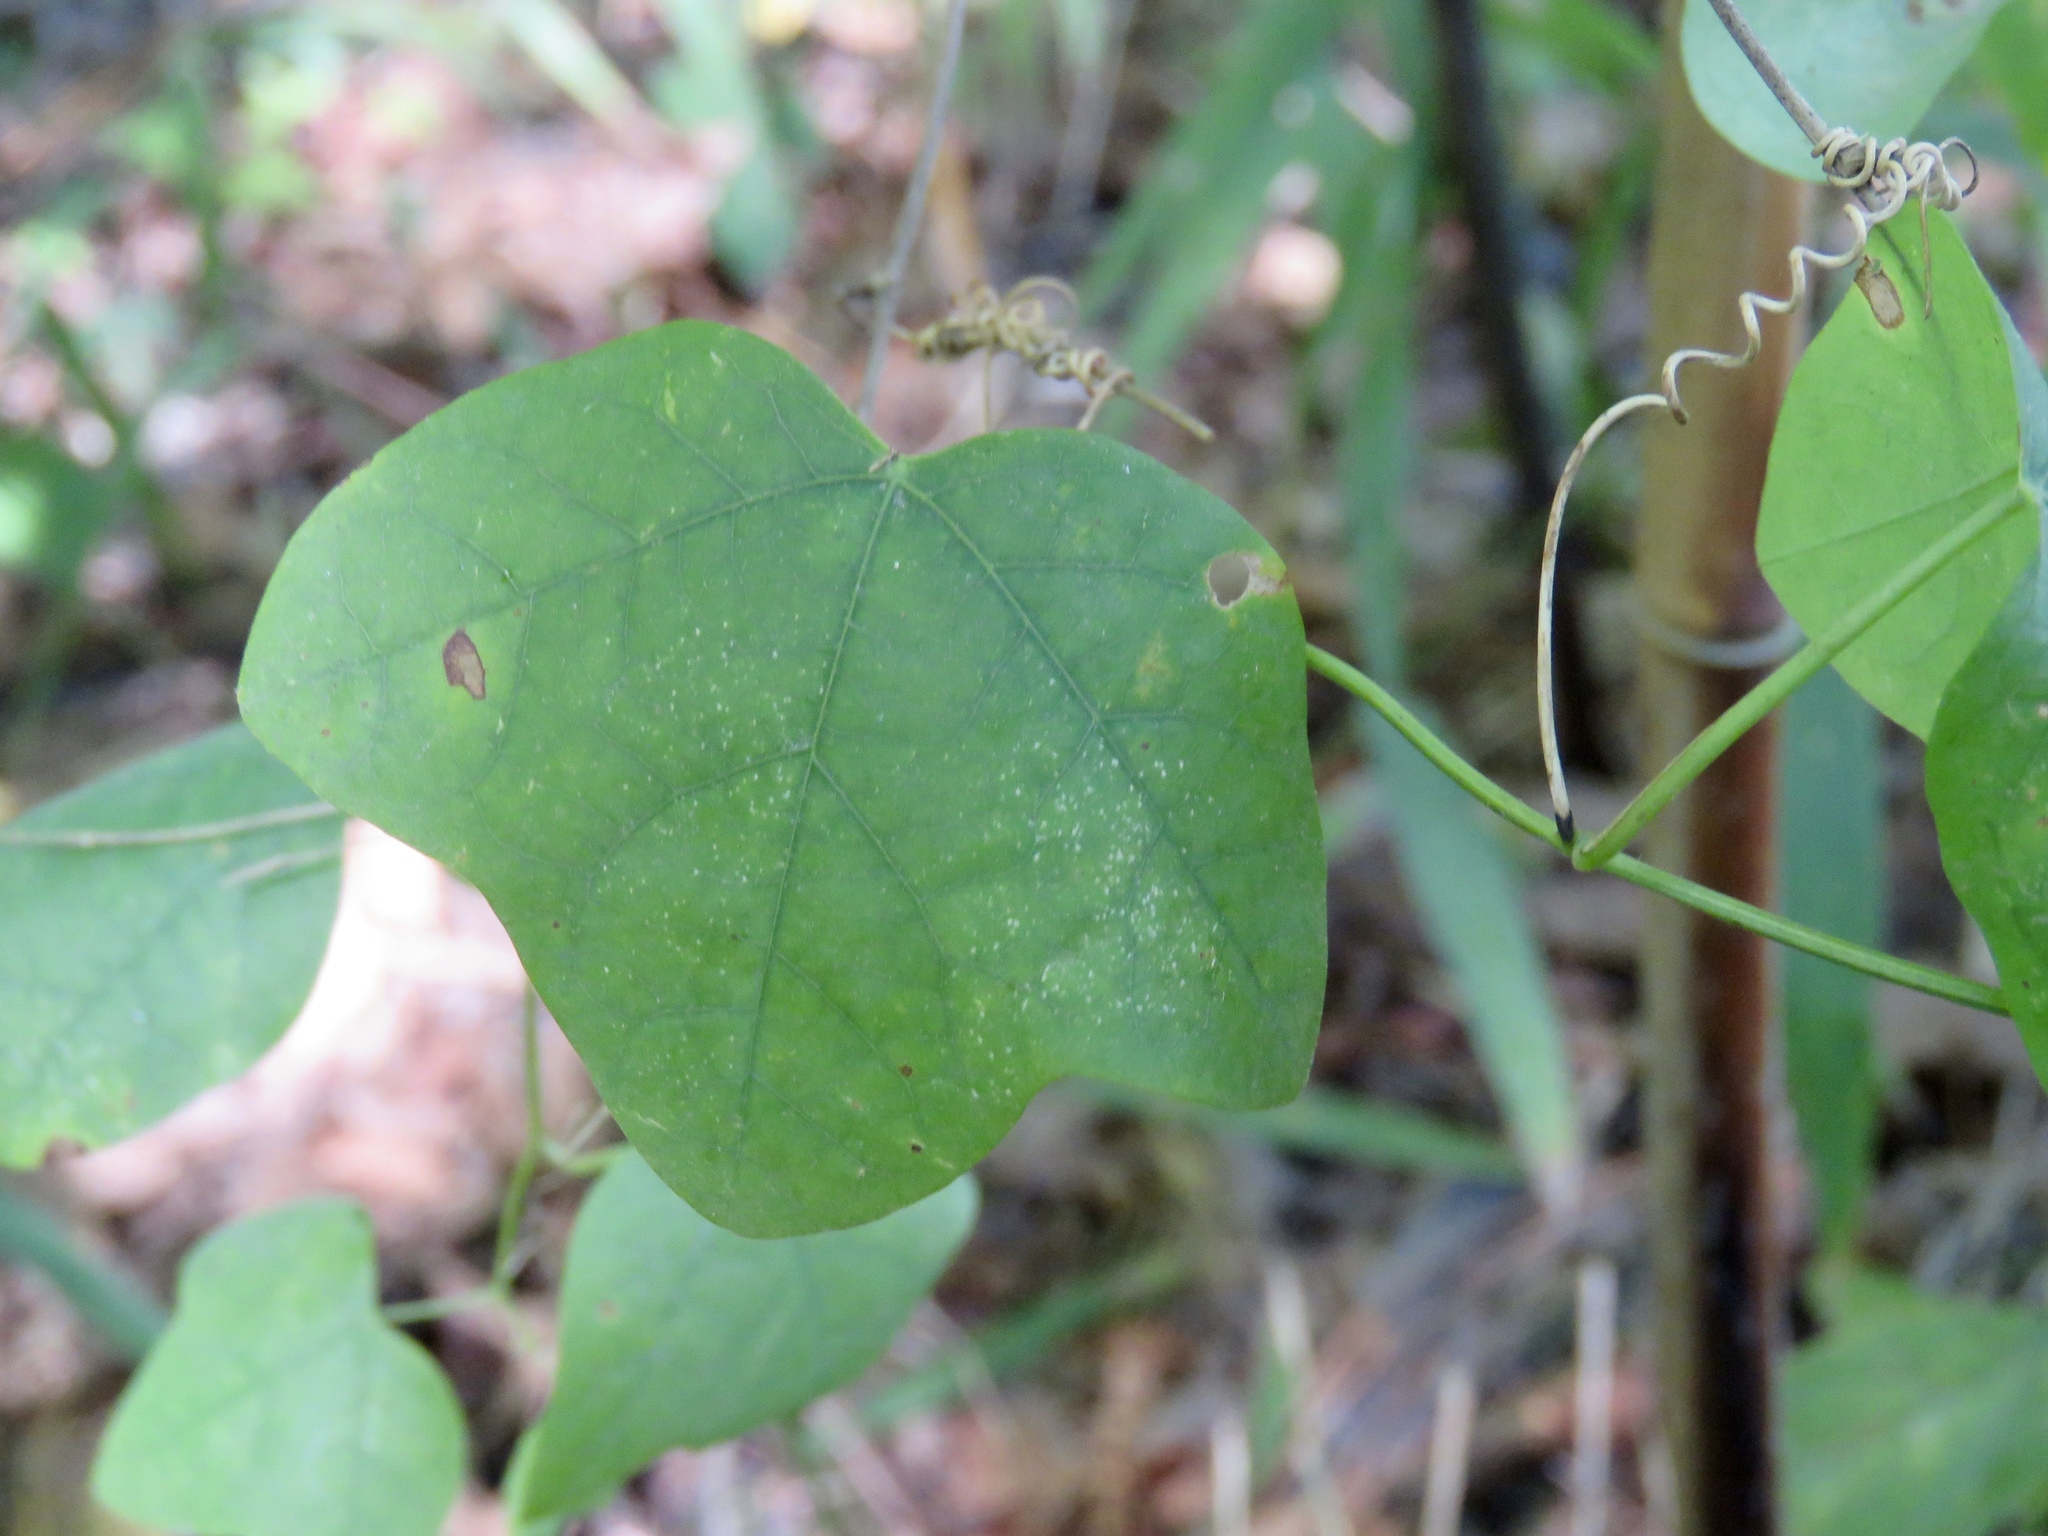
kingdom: Plantae
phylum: Tracheophyta
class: Magnoliopsida
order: Malpighiales
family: Passifloraceae
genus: Passiflora
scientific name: Passiflora lutea
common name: Yellow passionflower
